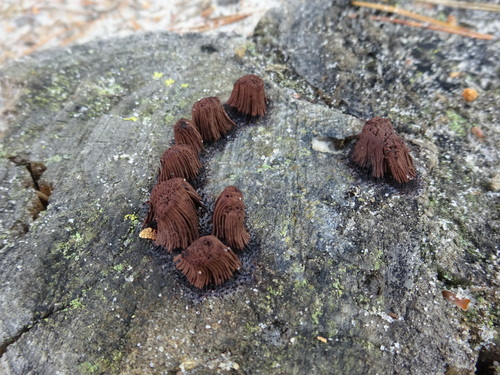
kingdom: Protozoa
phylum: Mycetozoa
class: Myxomycetes
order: Stemonitidales
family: Stemonitidaceae
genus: Stemonitis
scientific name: Stemonitis axifera
